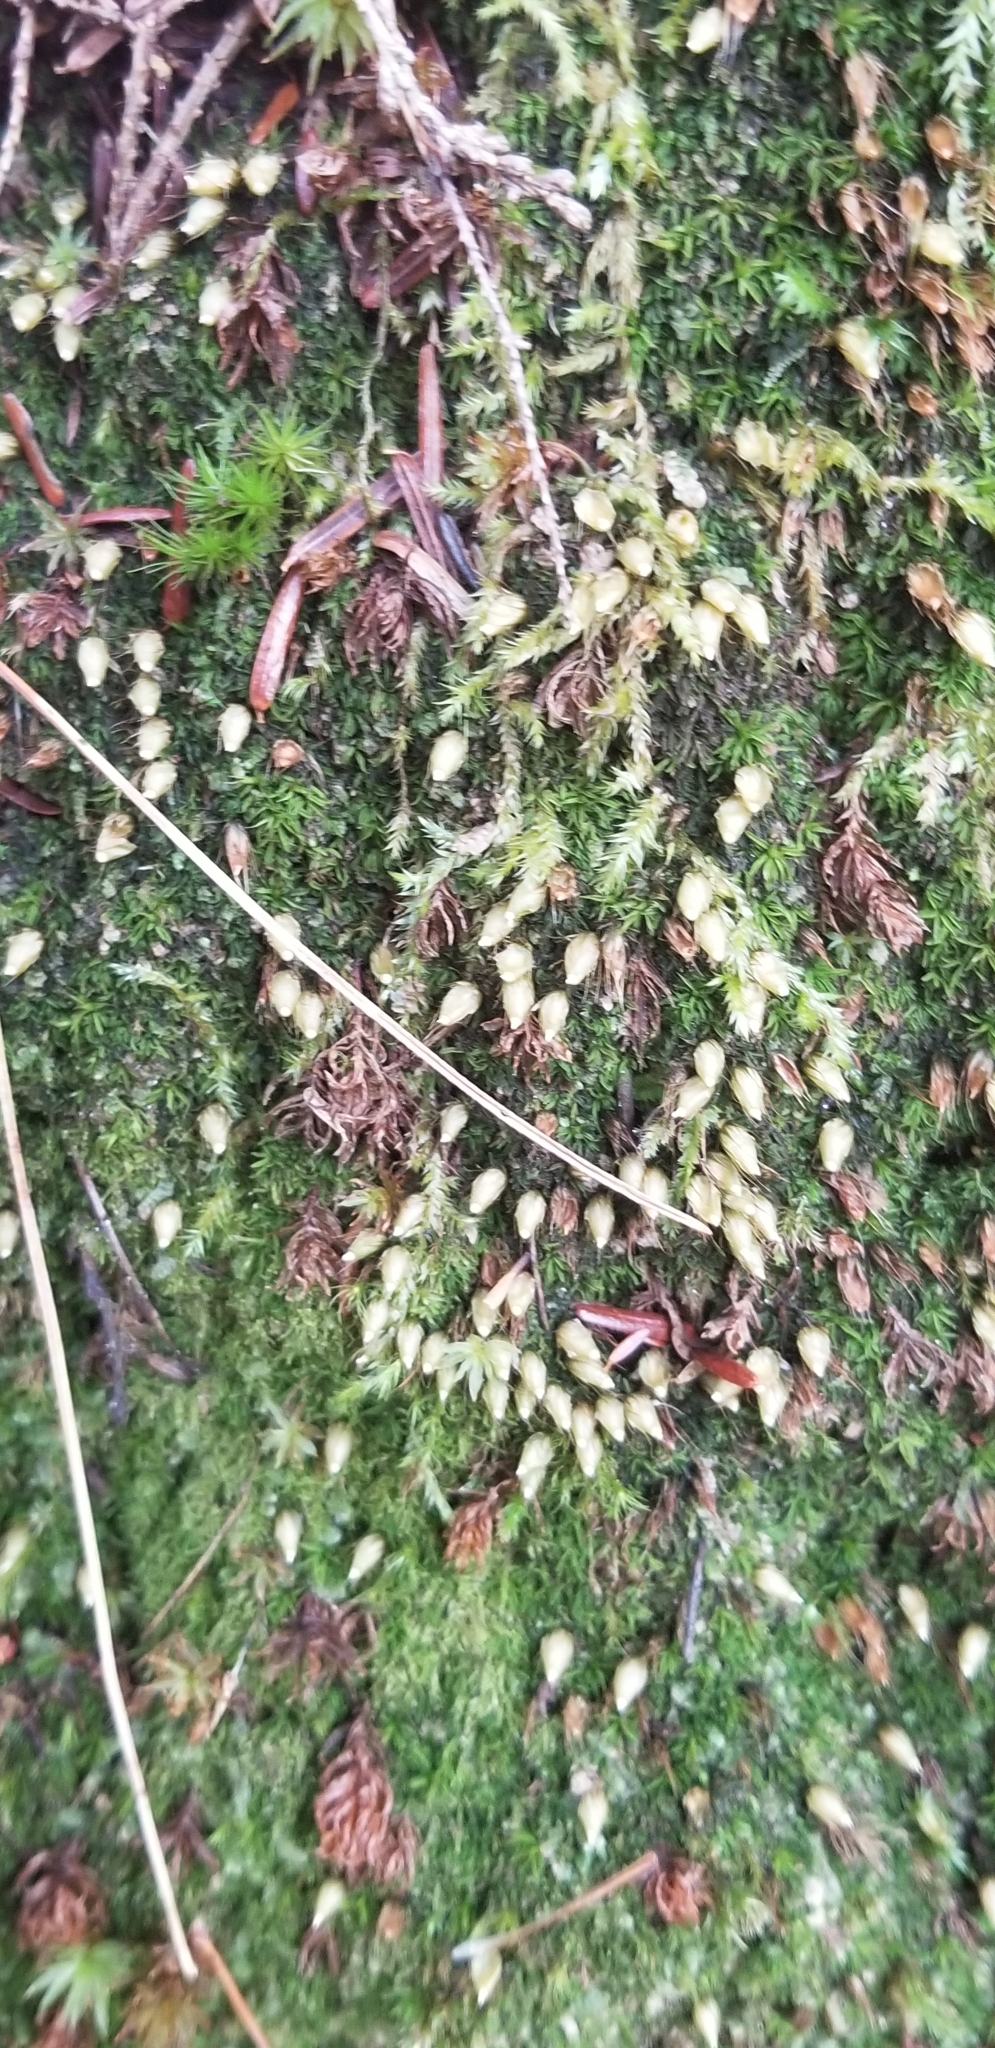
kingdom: Plantae
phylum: Bryophyta
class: Bryopsida
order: Diphysciales
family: Diphysciaceae
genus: Diphyscium
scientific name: Diphyscium foliosum
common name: Nut moss
